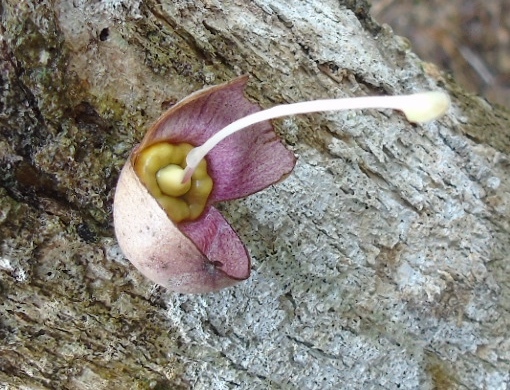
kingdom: Plantae
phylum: Tracheophyta
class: Magnoliopsida
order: Lamiales
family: Bignoniaceae
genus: Crescentia
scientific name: Crescentia alata
